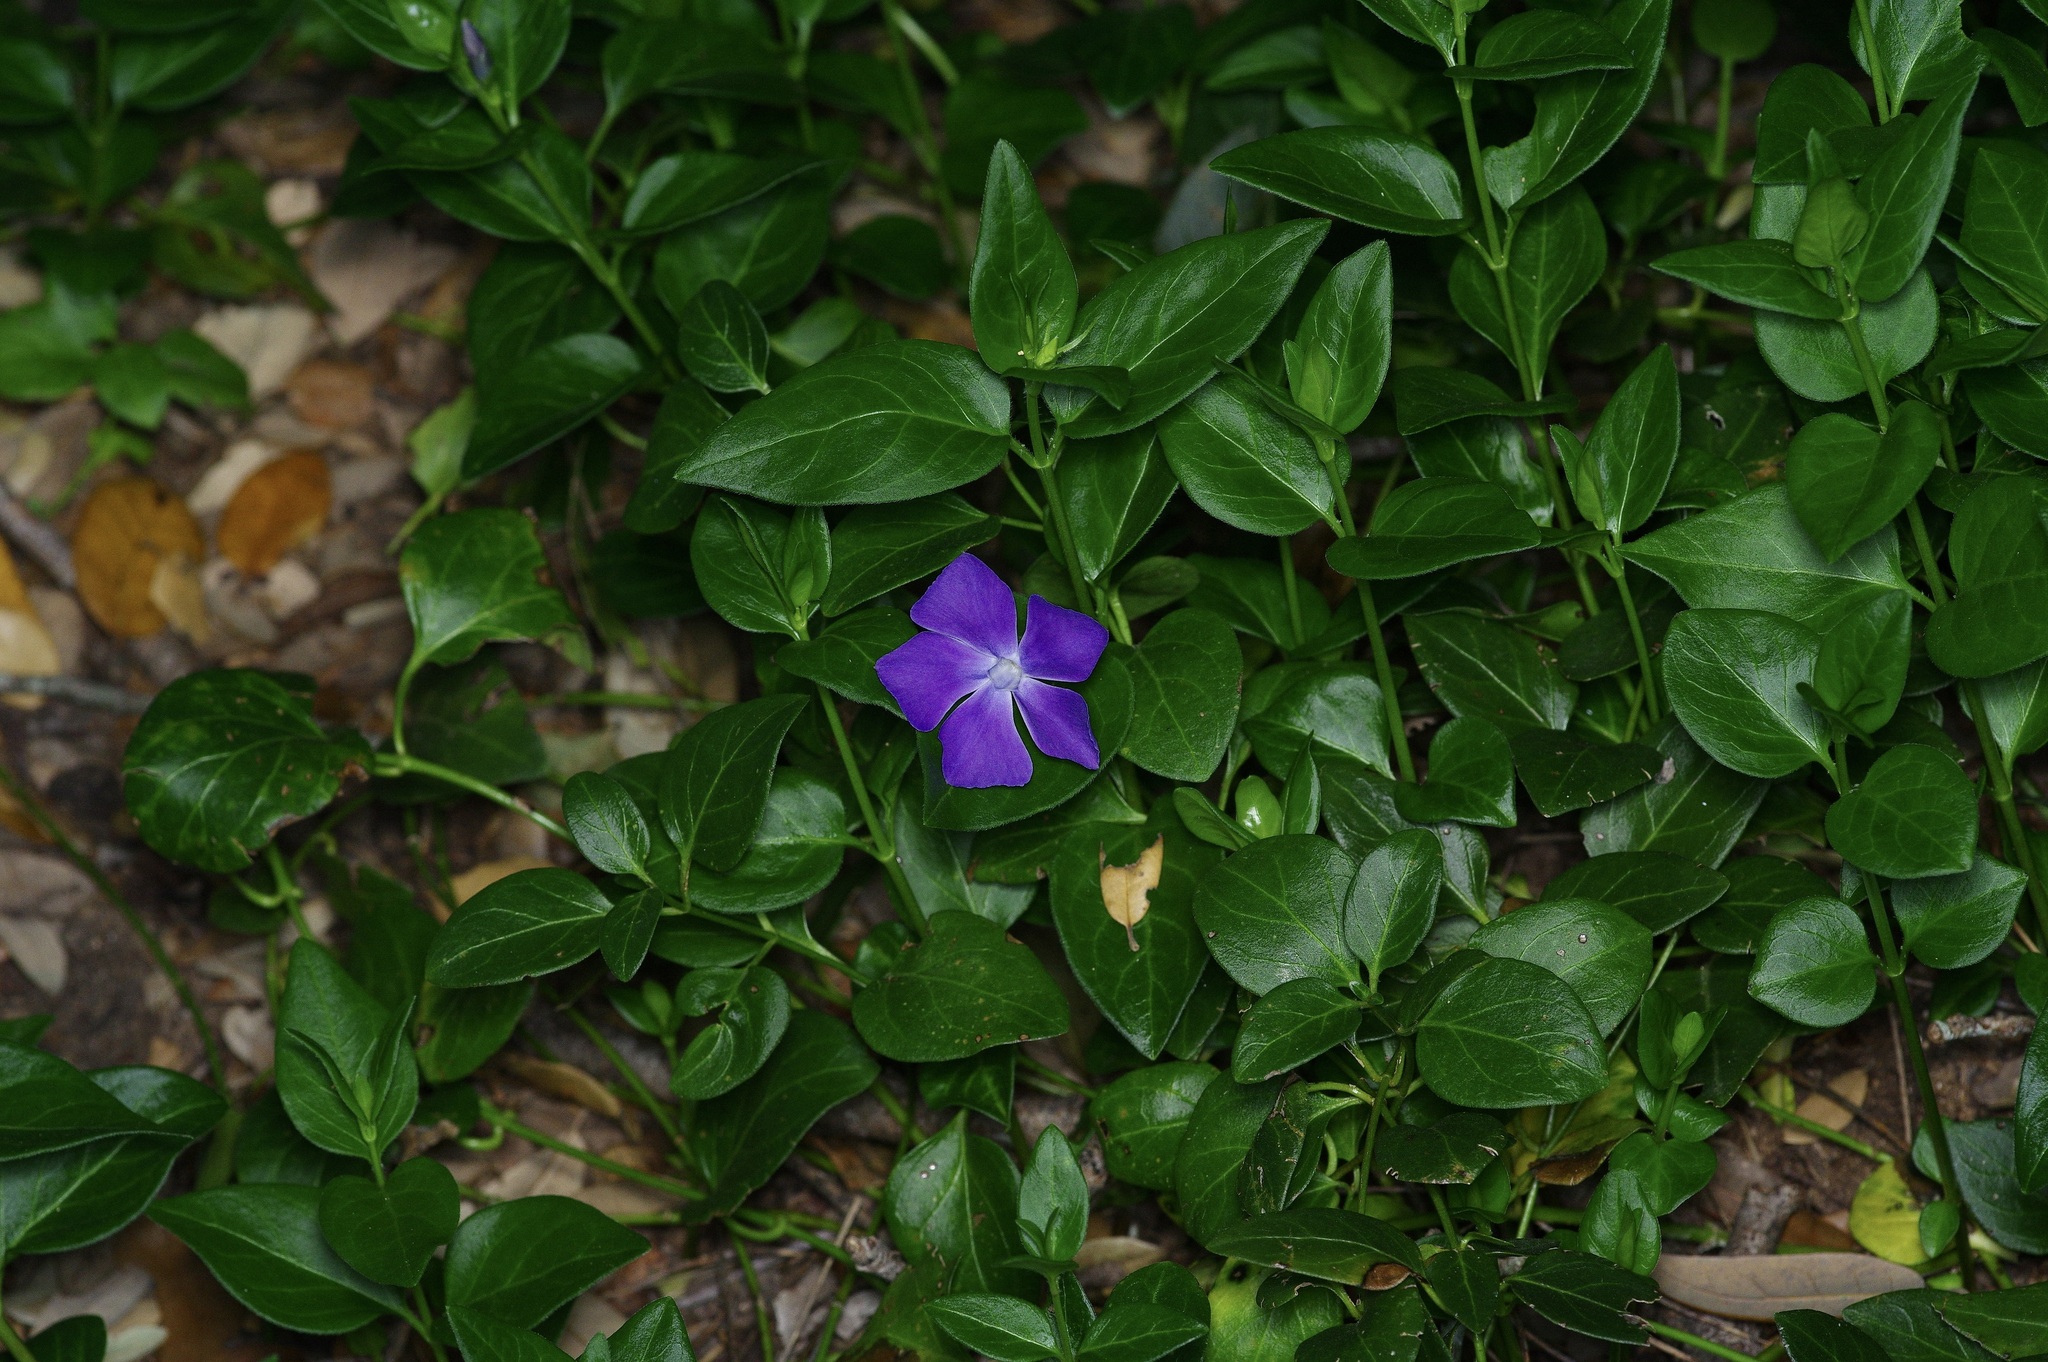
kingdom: Plantae
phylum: Tracheophyta
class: Magnoliopsida
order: Gentianales
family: Apocynaceae
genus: Vinca
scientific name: Vinca major
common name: Greater periwinkle
